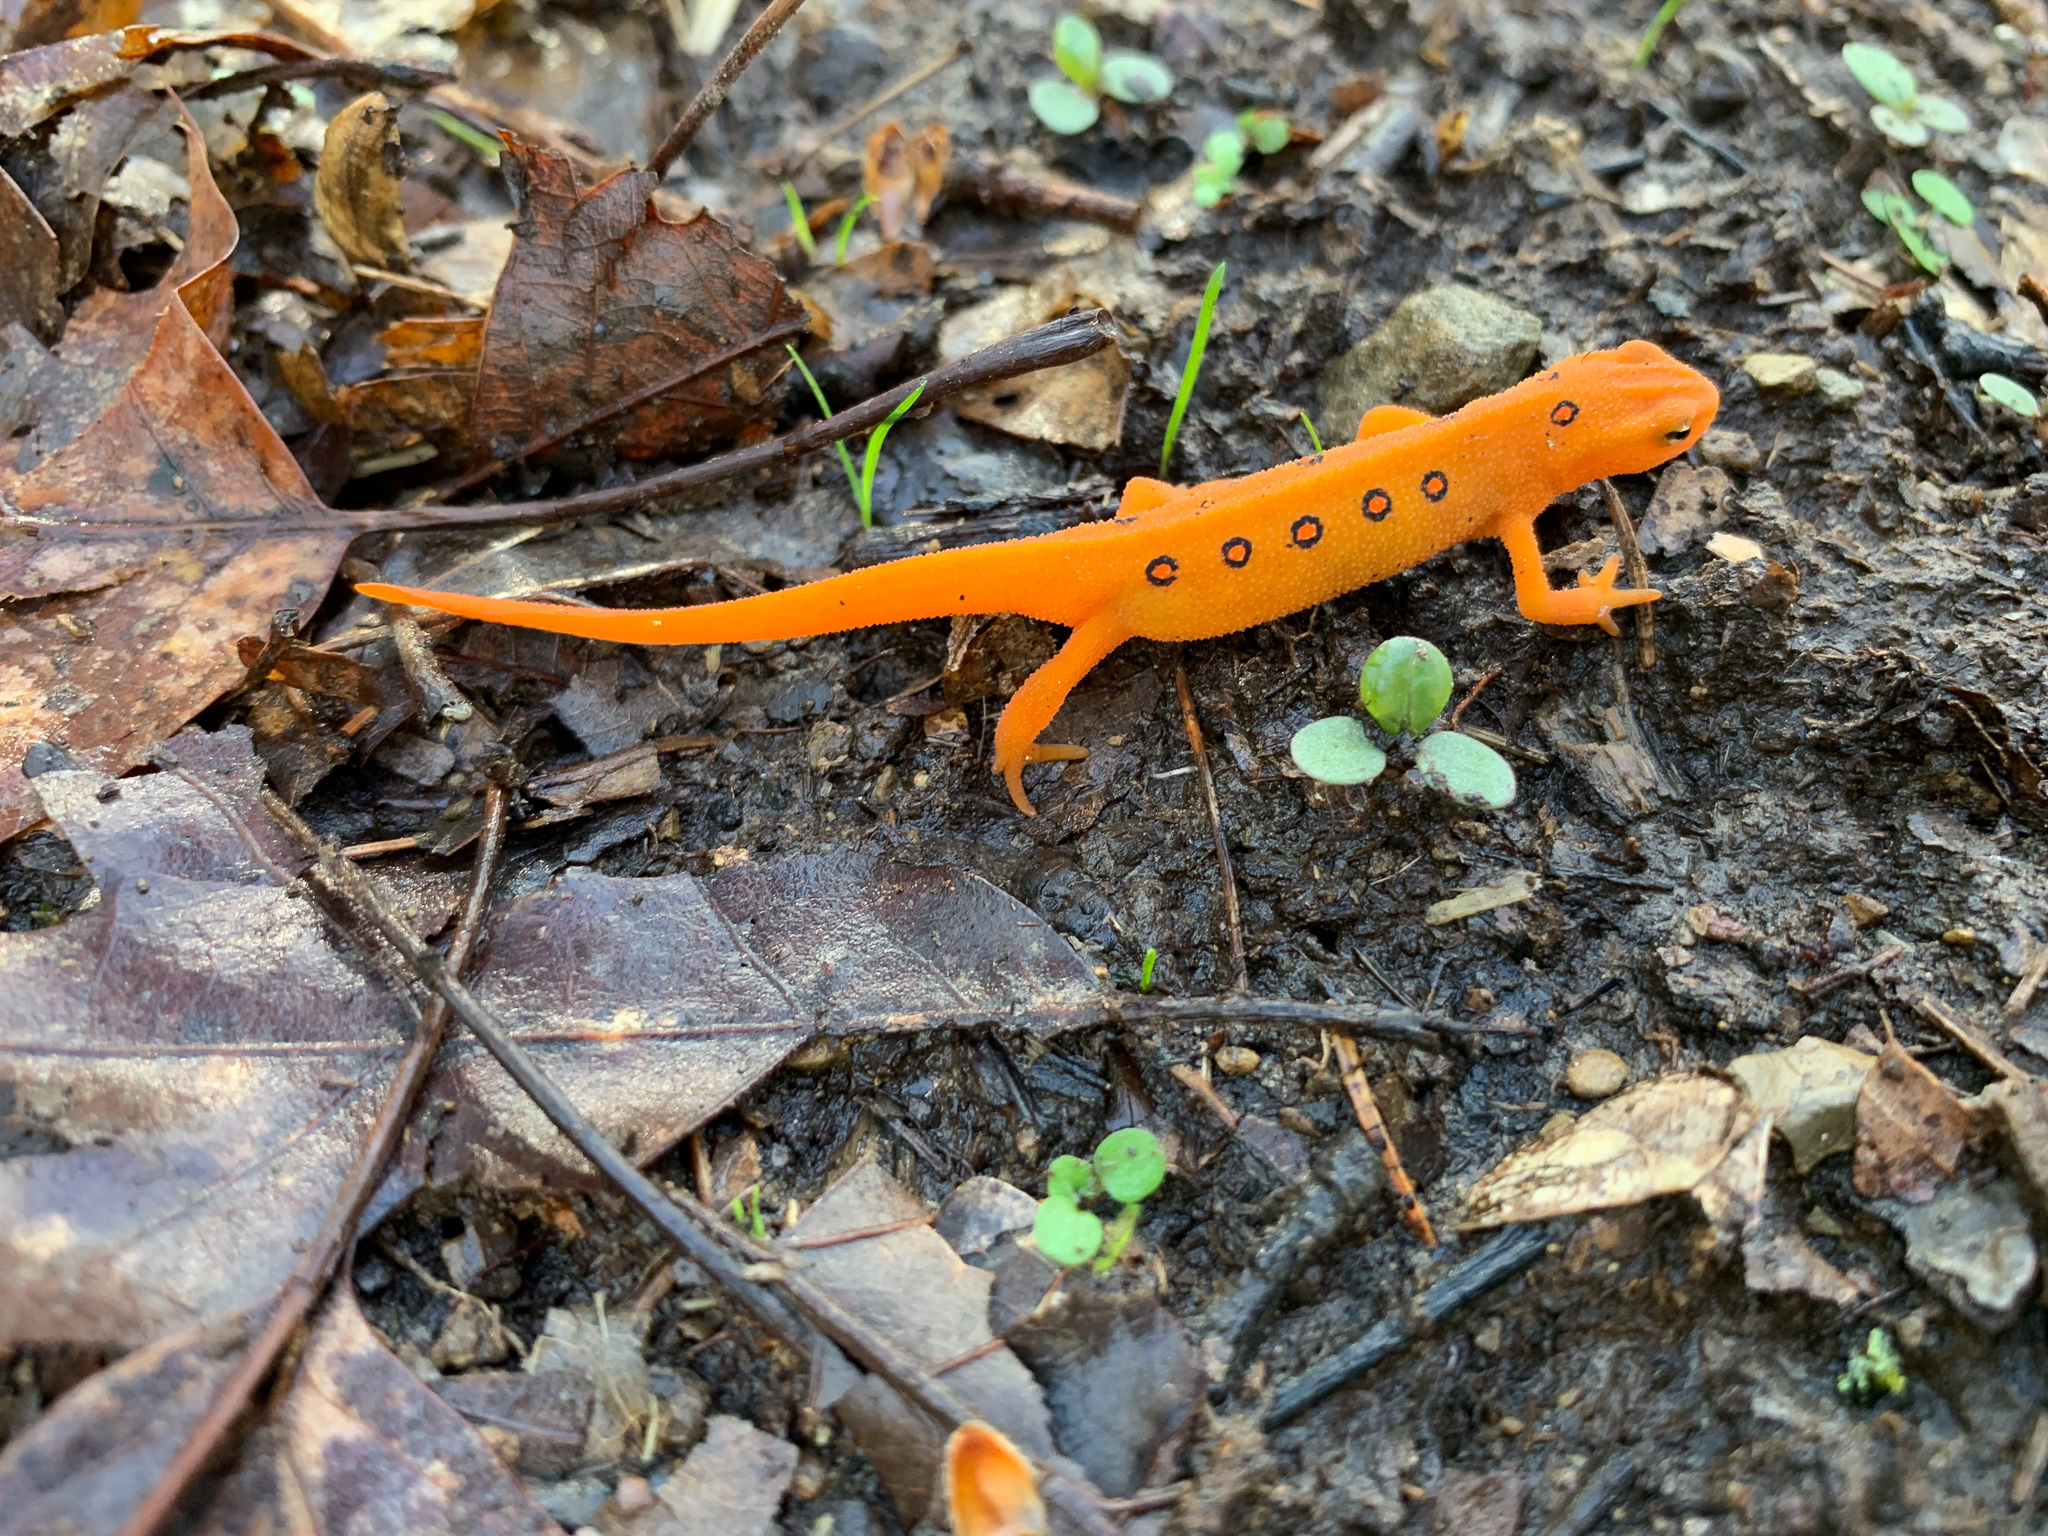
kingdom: Animalia
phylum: Chordata
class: Amphibia
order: Caudata
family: Salamandridae
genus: Notophthalmus
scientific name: Notophthalmus viridescens
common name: Eastern newt
